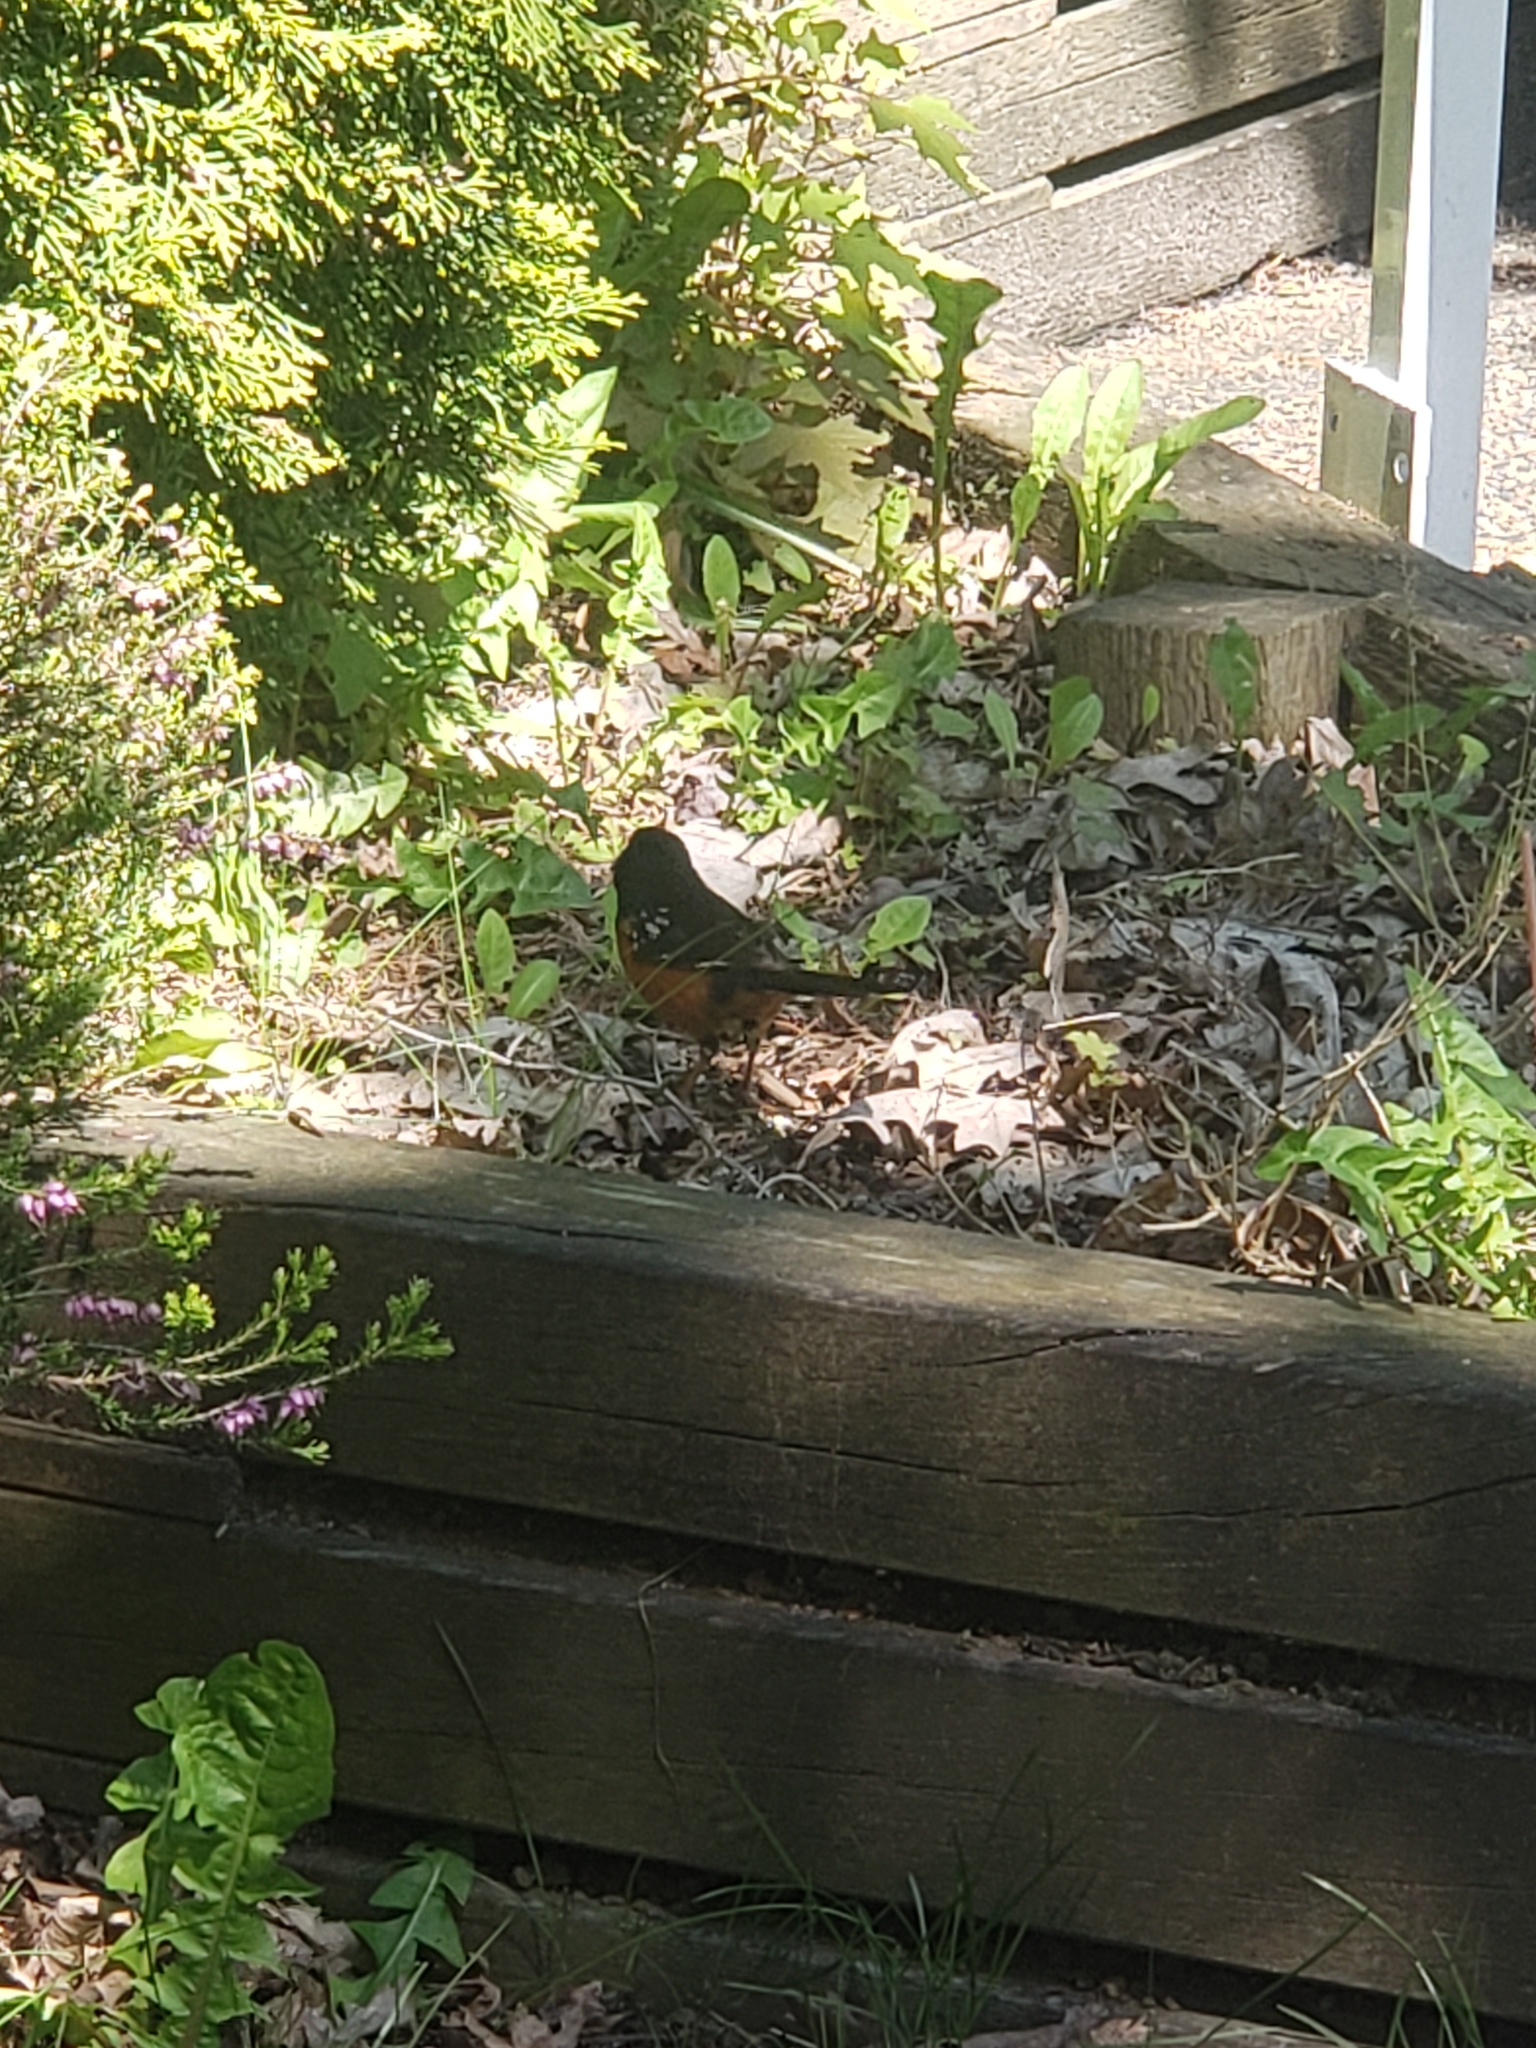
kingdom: Animalia
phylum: Chordata
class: Aves
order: Passeriformes
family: Passerellidae
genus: Pipilo
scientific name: Pipilo maculatus
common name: Spotted towhee
